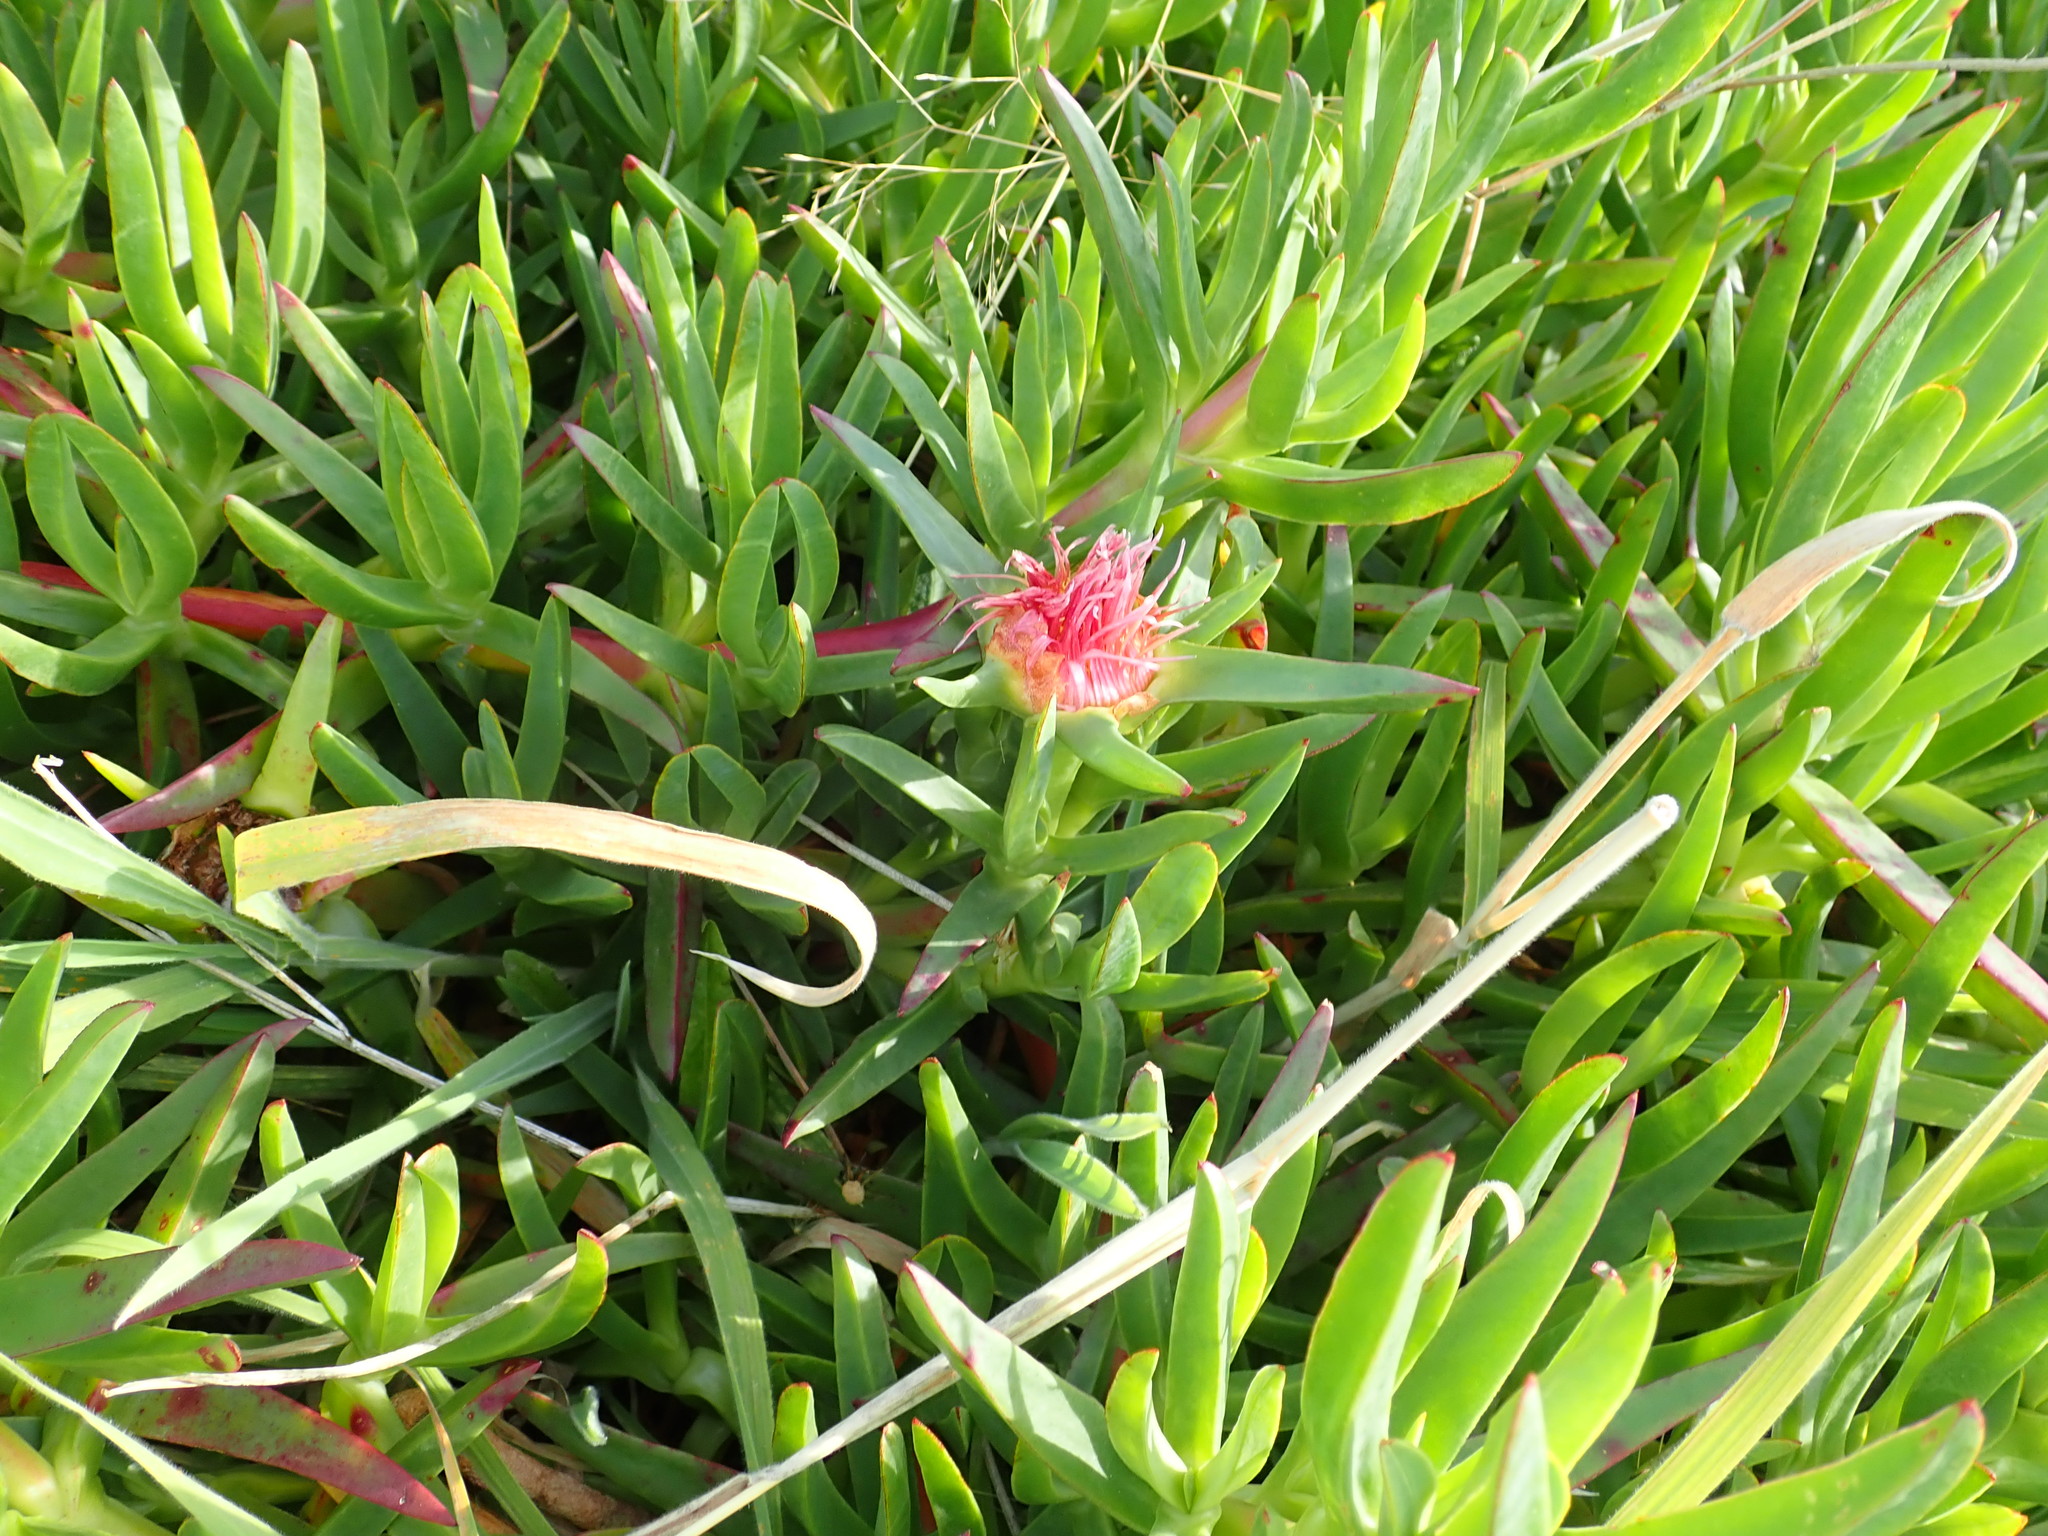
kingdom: Plantae
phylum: Tracheophyta
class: Magnoliopsida
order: Caryophyllales
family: Aizoaceae
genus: Carpobrotus
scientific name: Carpobrotus edulis
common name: Hottentot-fig
